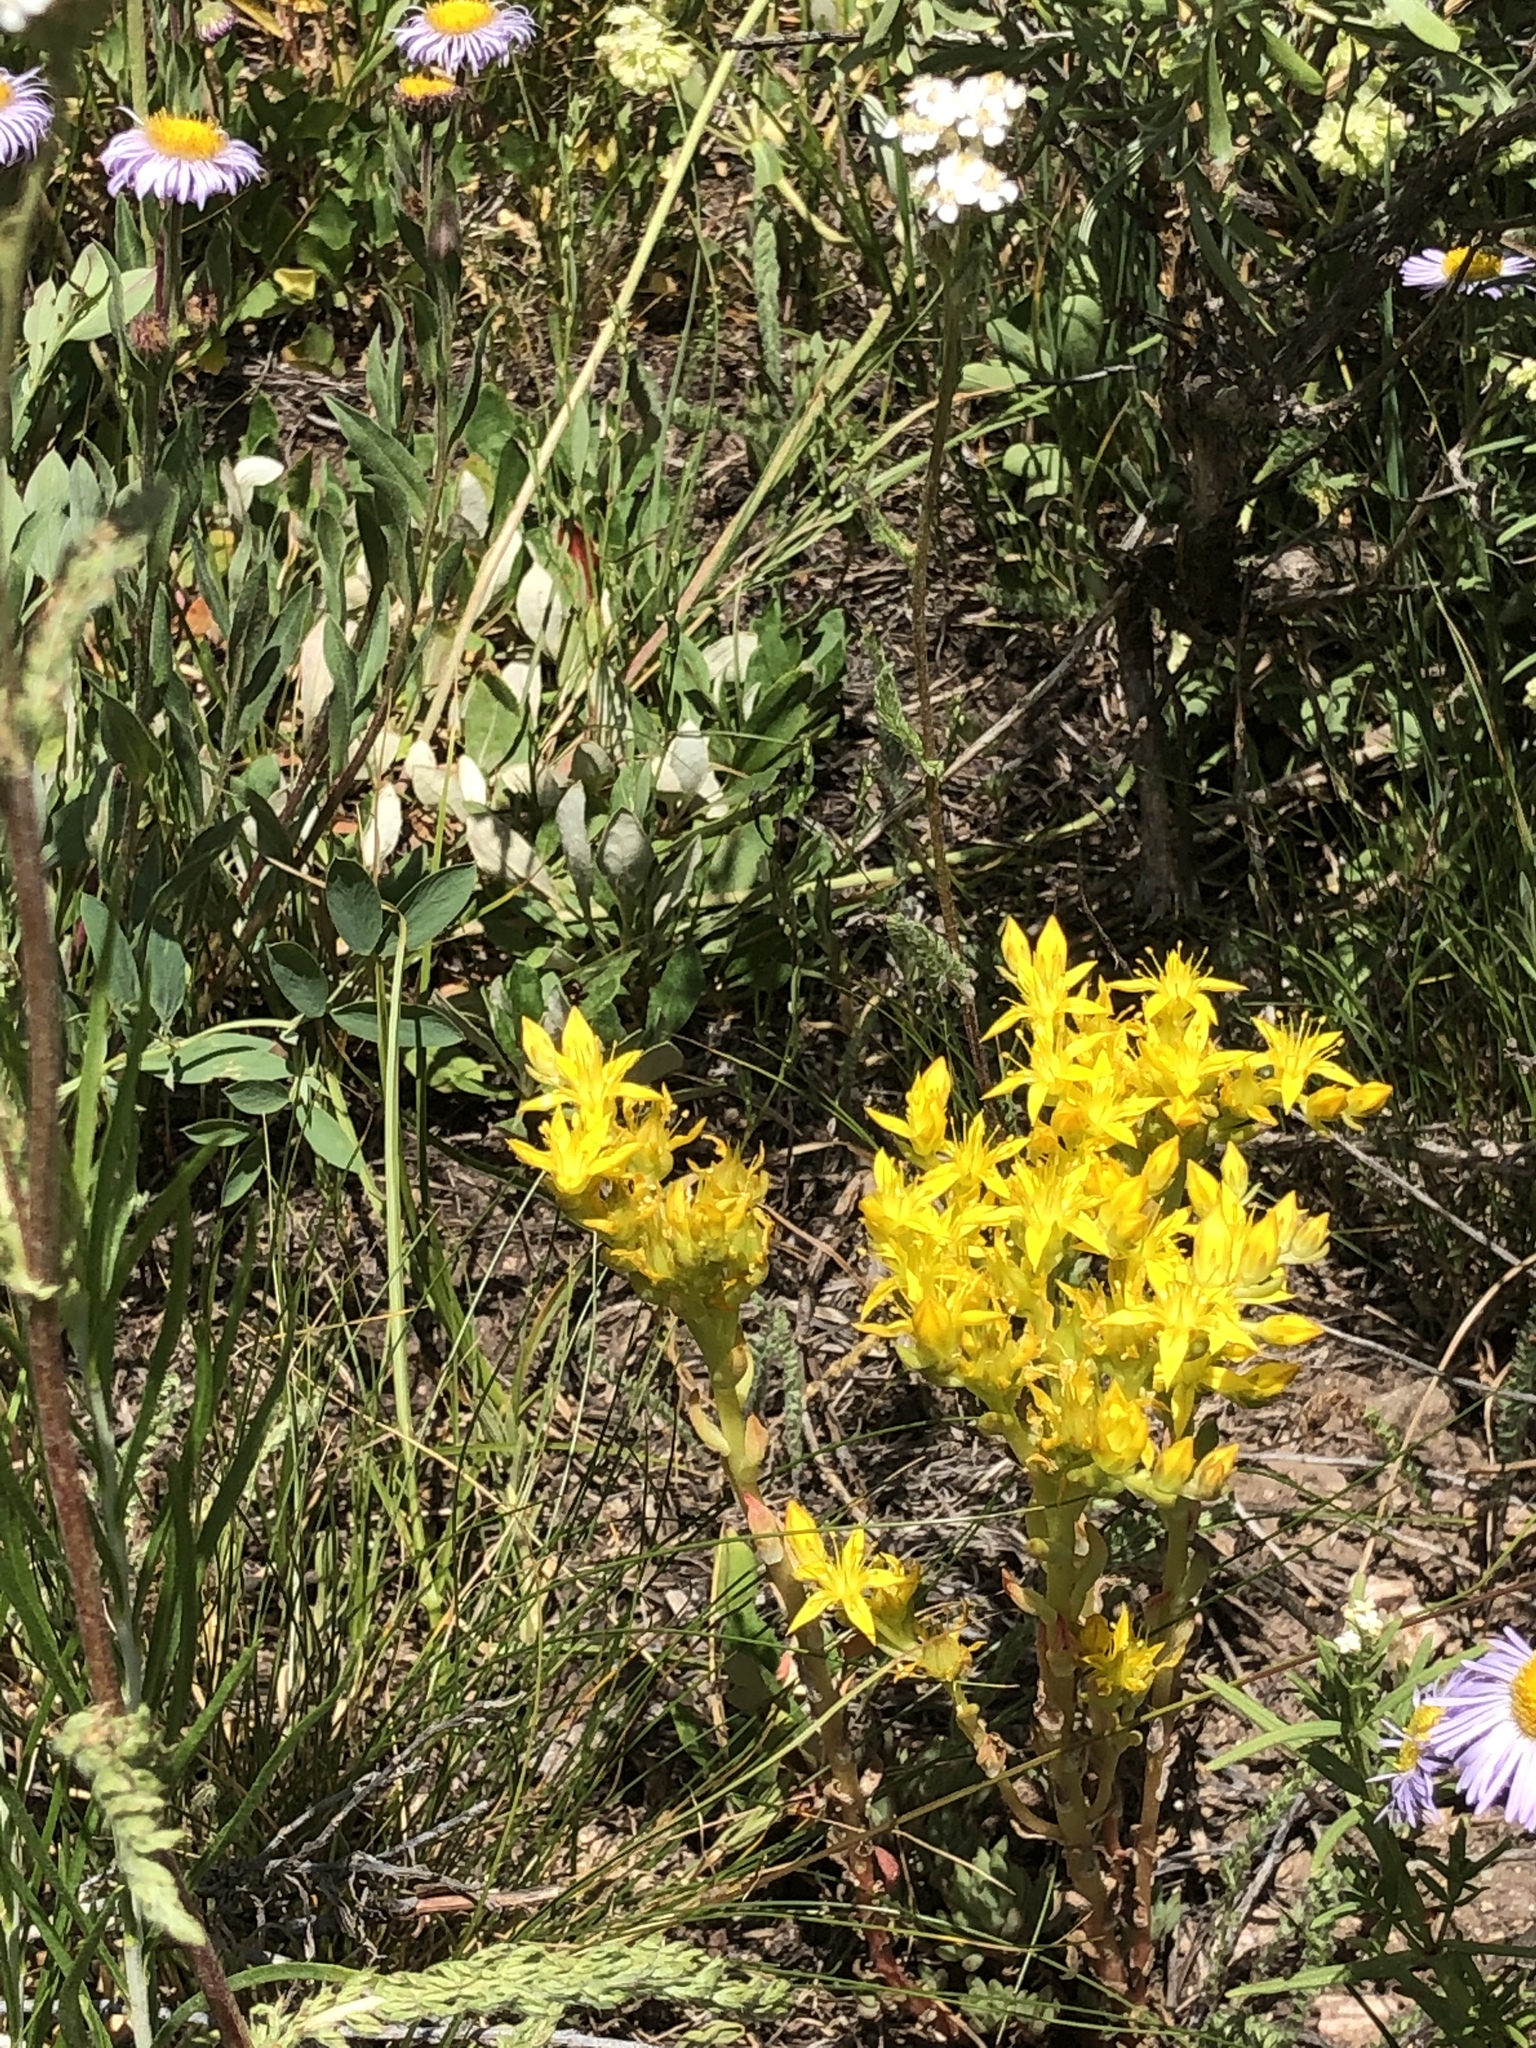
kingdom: Plantae
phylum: Tracheophyta
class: Magnoliopsida
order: Saxifragales
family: Crassulaceae
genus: Sedum
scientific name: Sedum lanceolatum
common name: Common stonecrop
